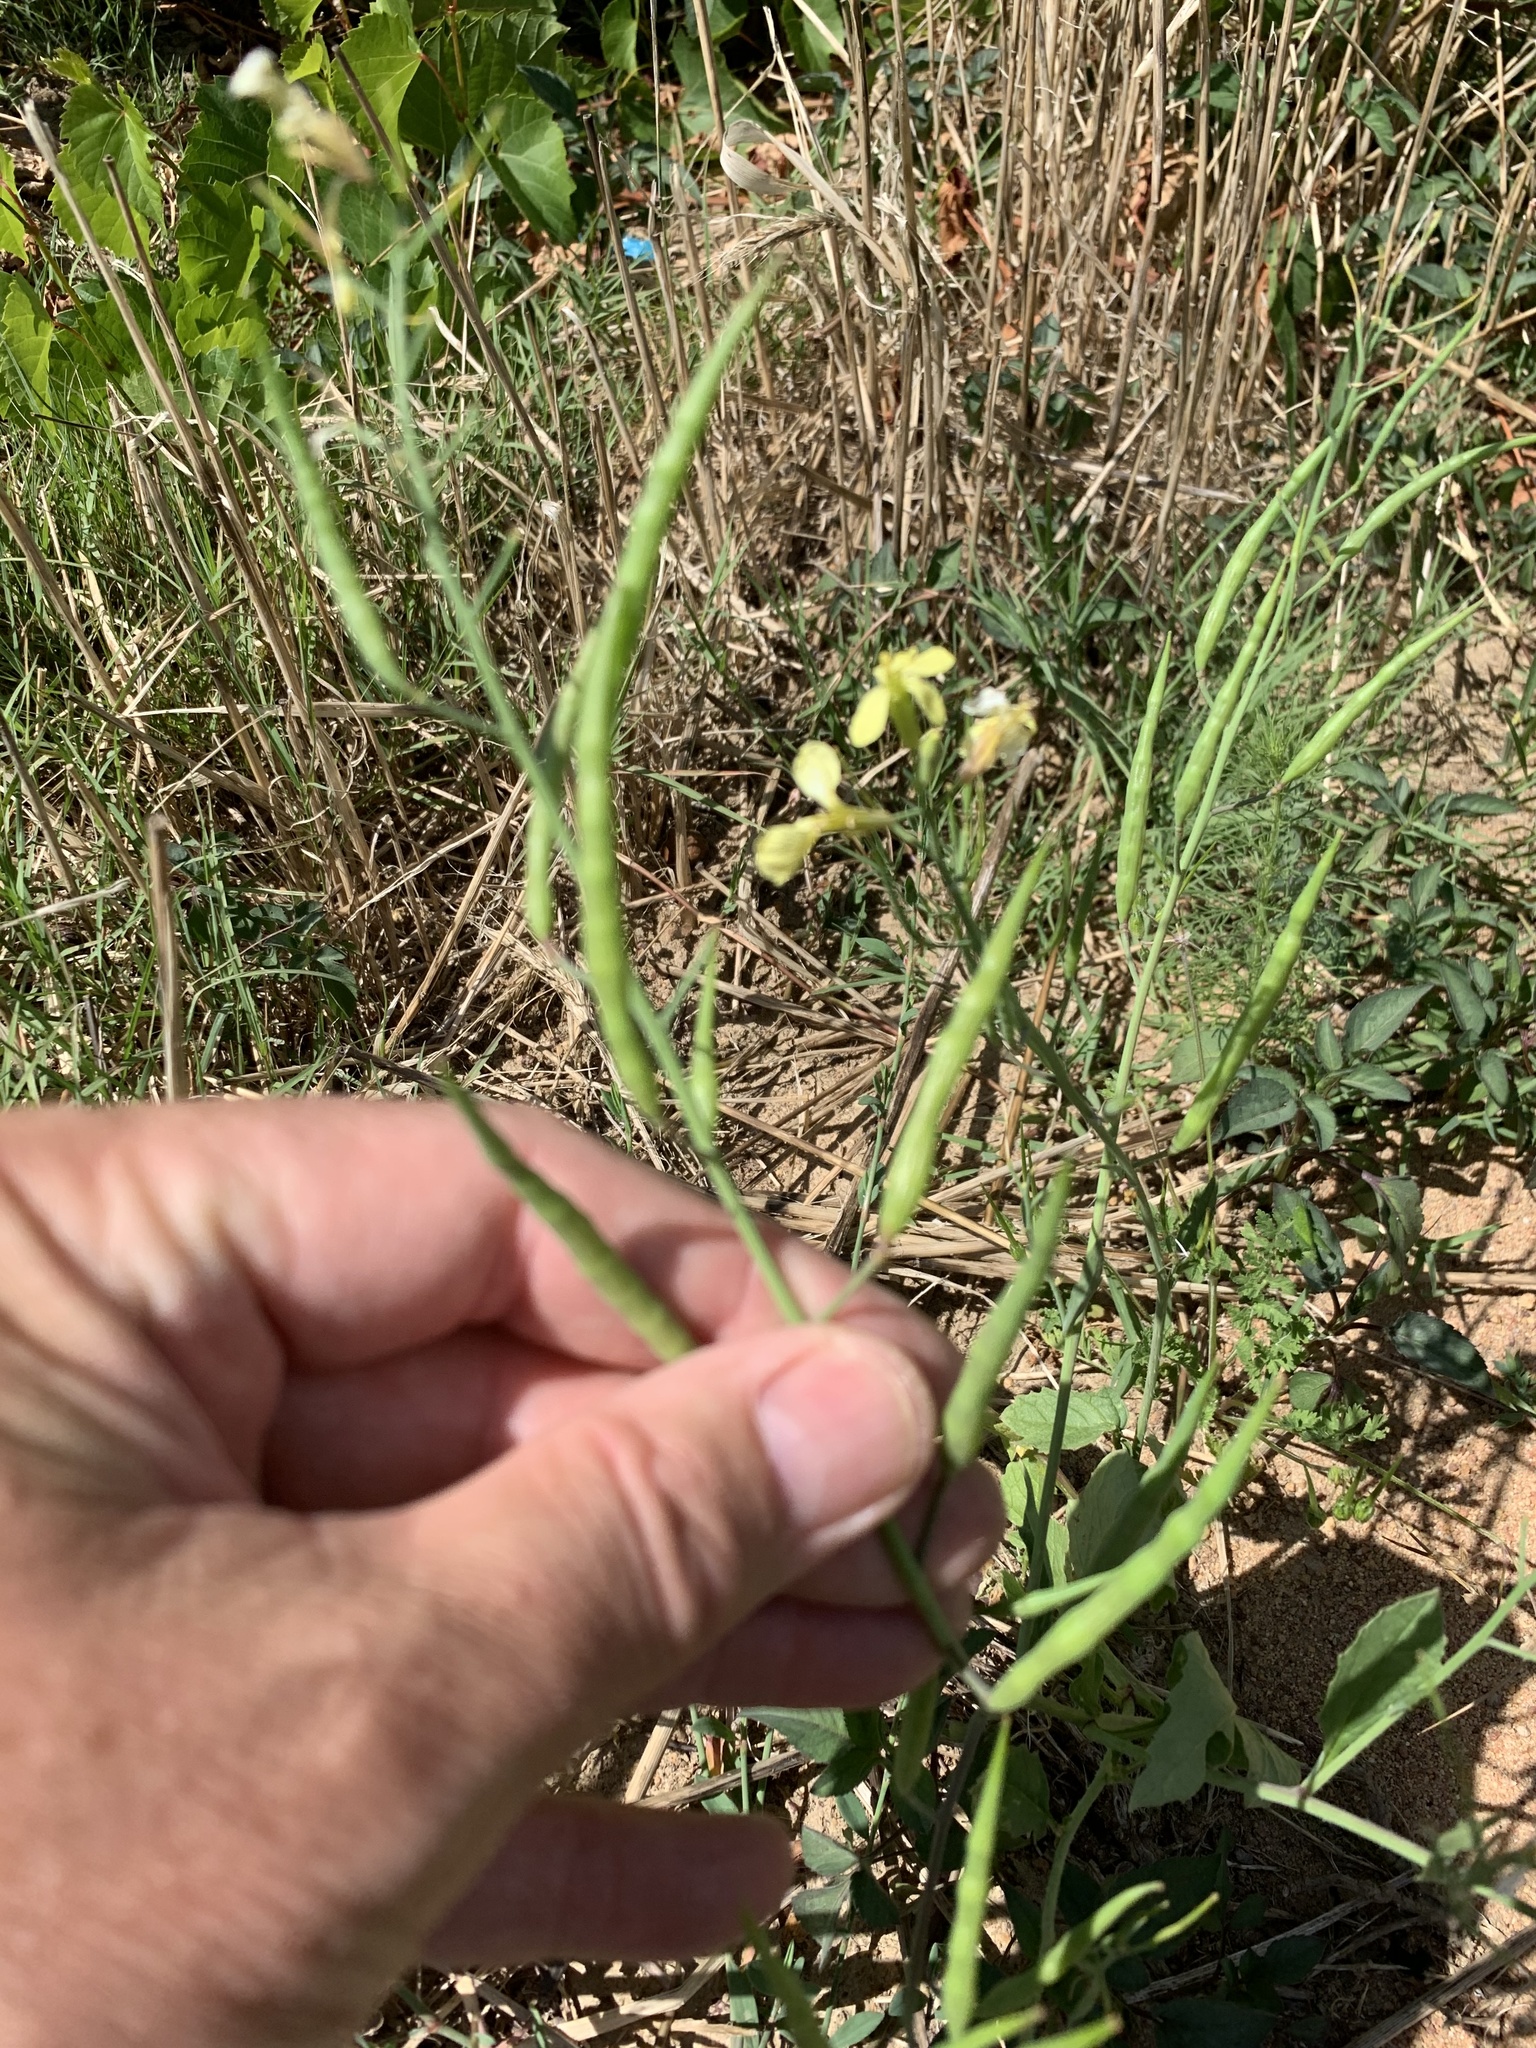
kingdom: Plantae
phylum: Tracheophyta
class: Magnoliopsida
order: Brassicales
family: Brassicaceae
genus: Raphanus
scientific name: Raphanus raphanistrum
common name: Wild radish
